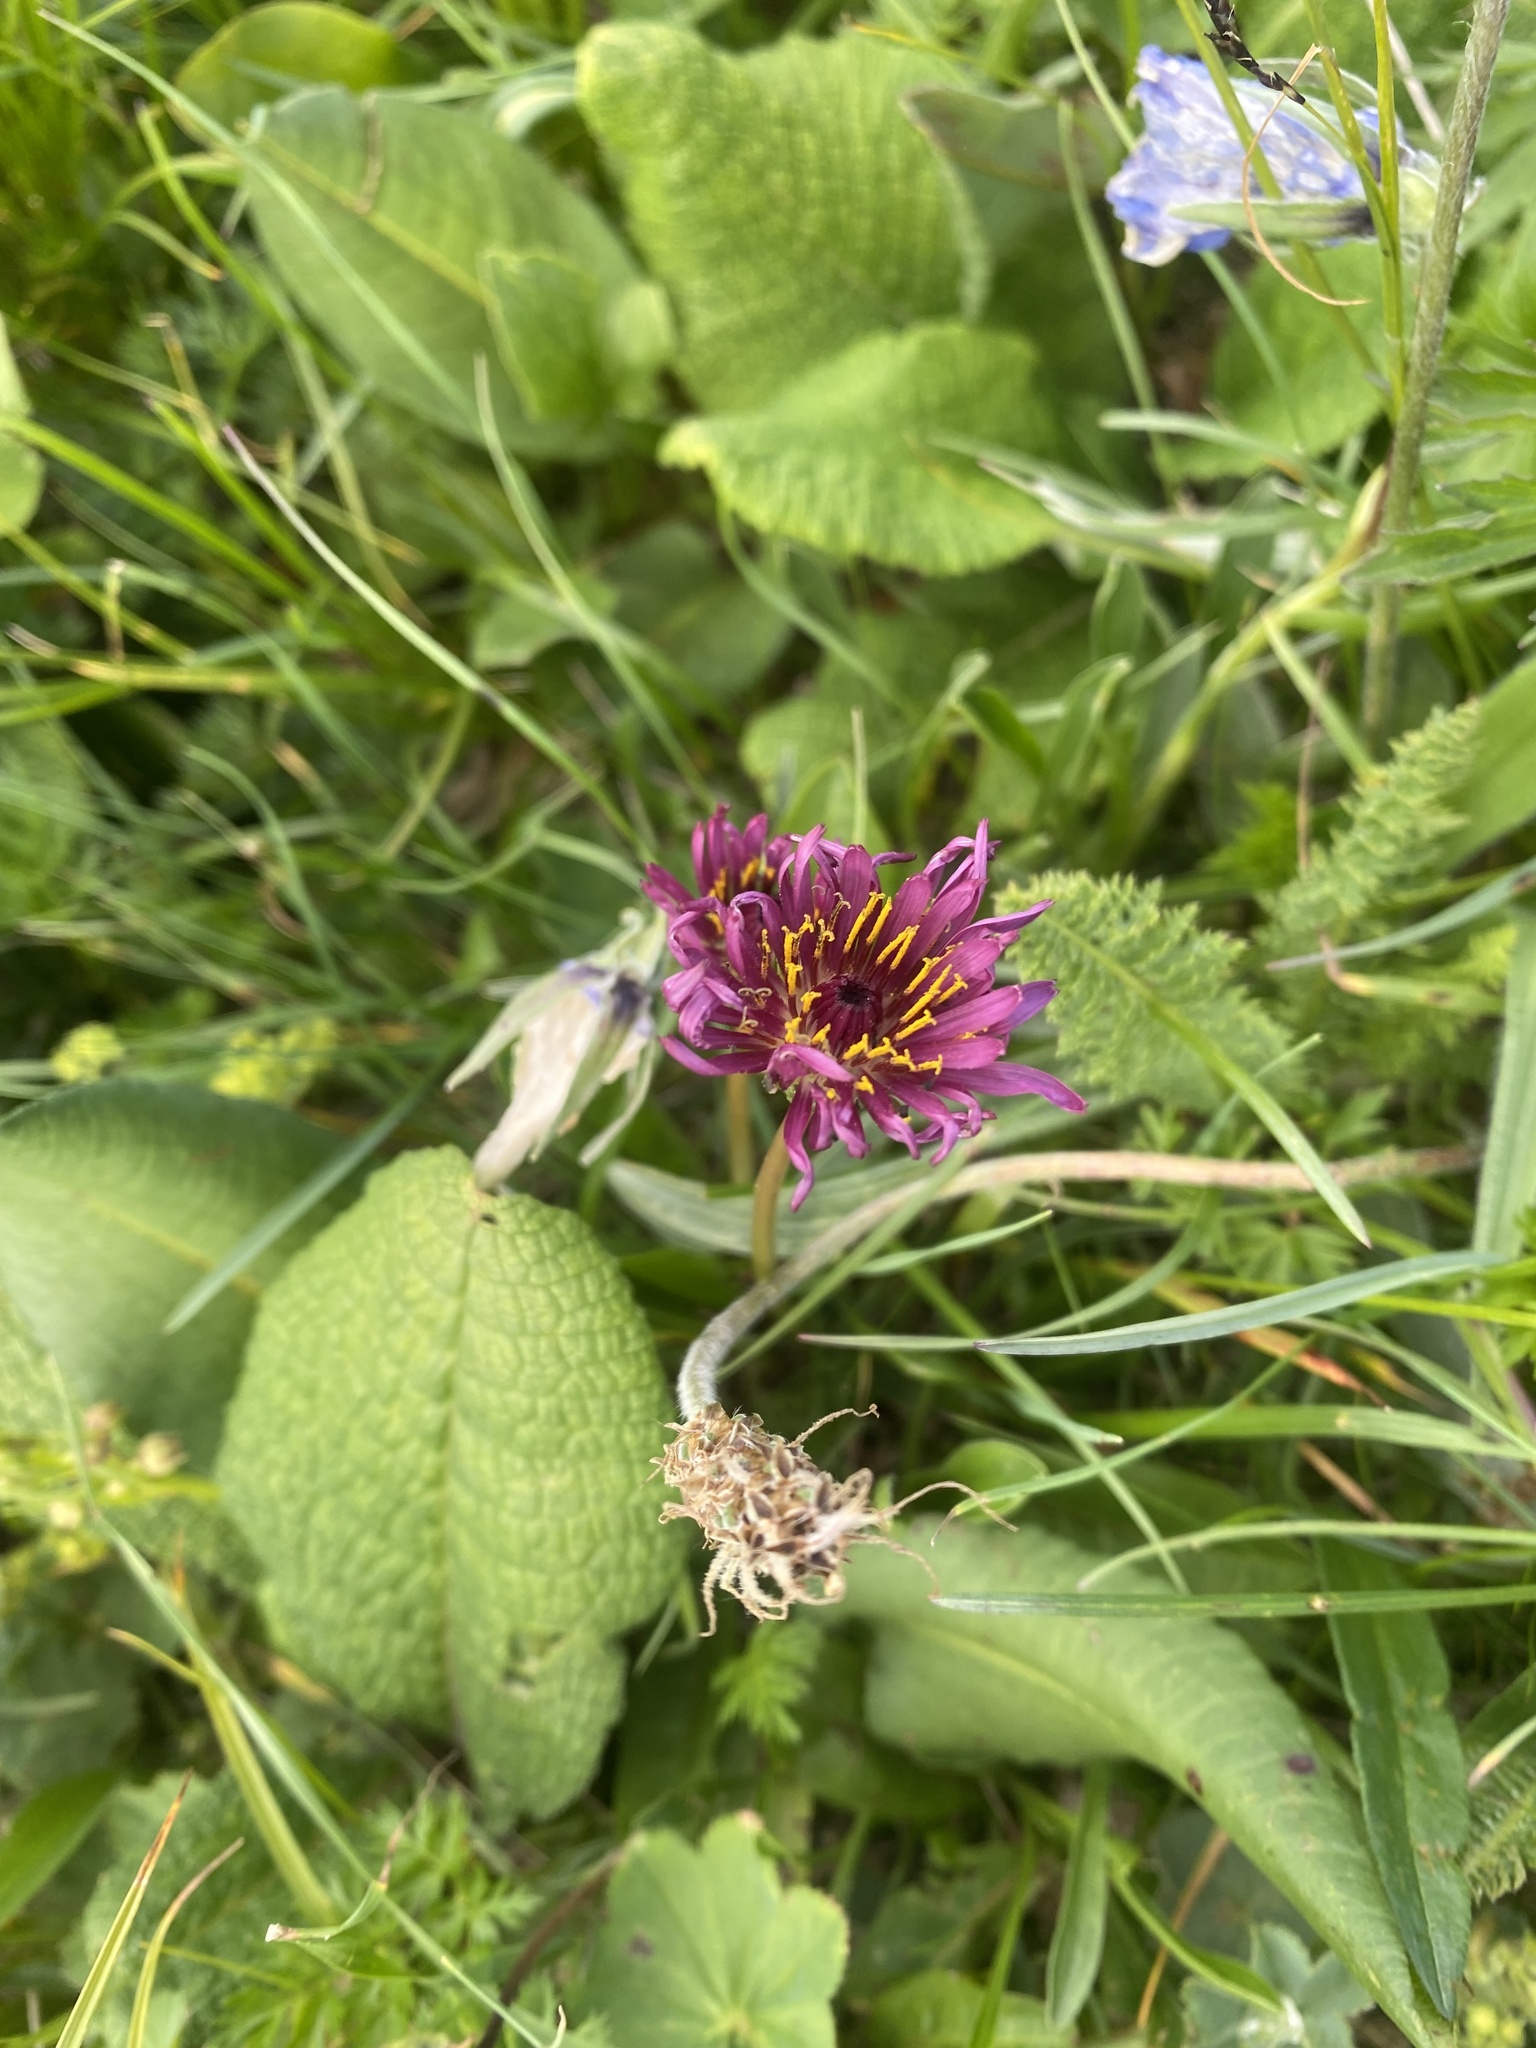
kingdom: Plantae
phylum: Tracheophyta
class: Magnoliopsida
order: Asterales
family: Asteraceae
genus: Taraxacum
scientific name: Taraxacum porphyranthum
